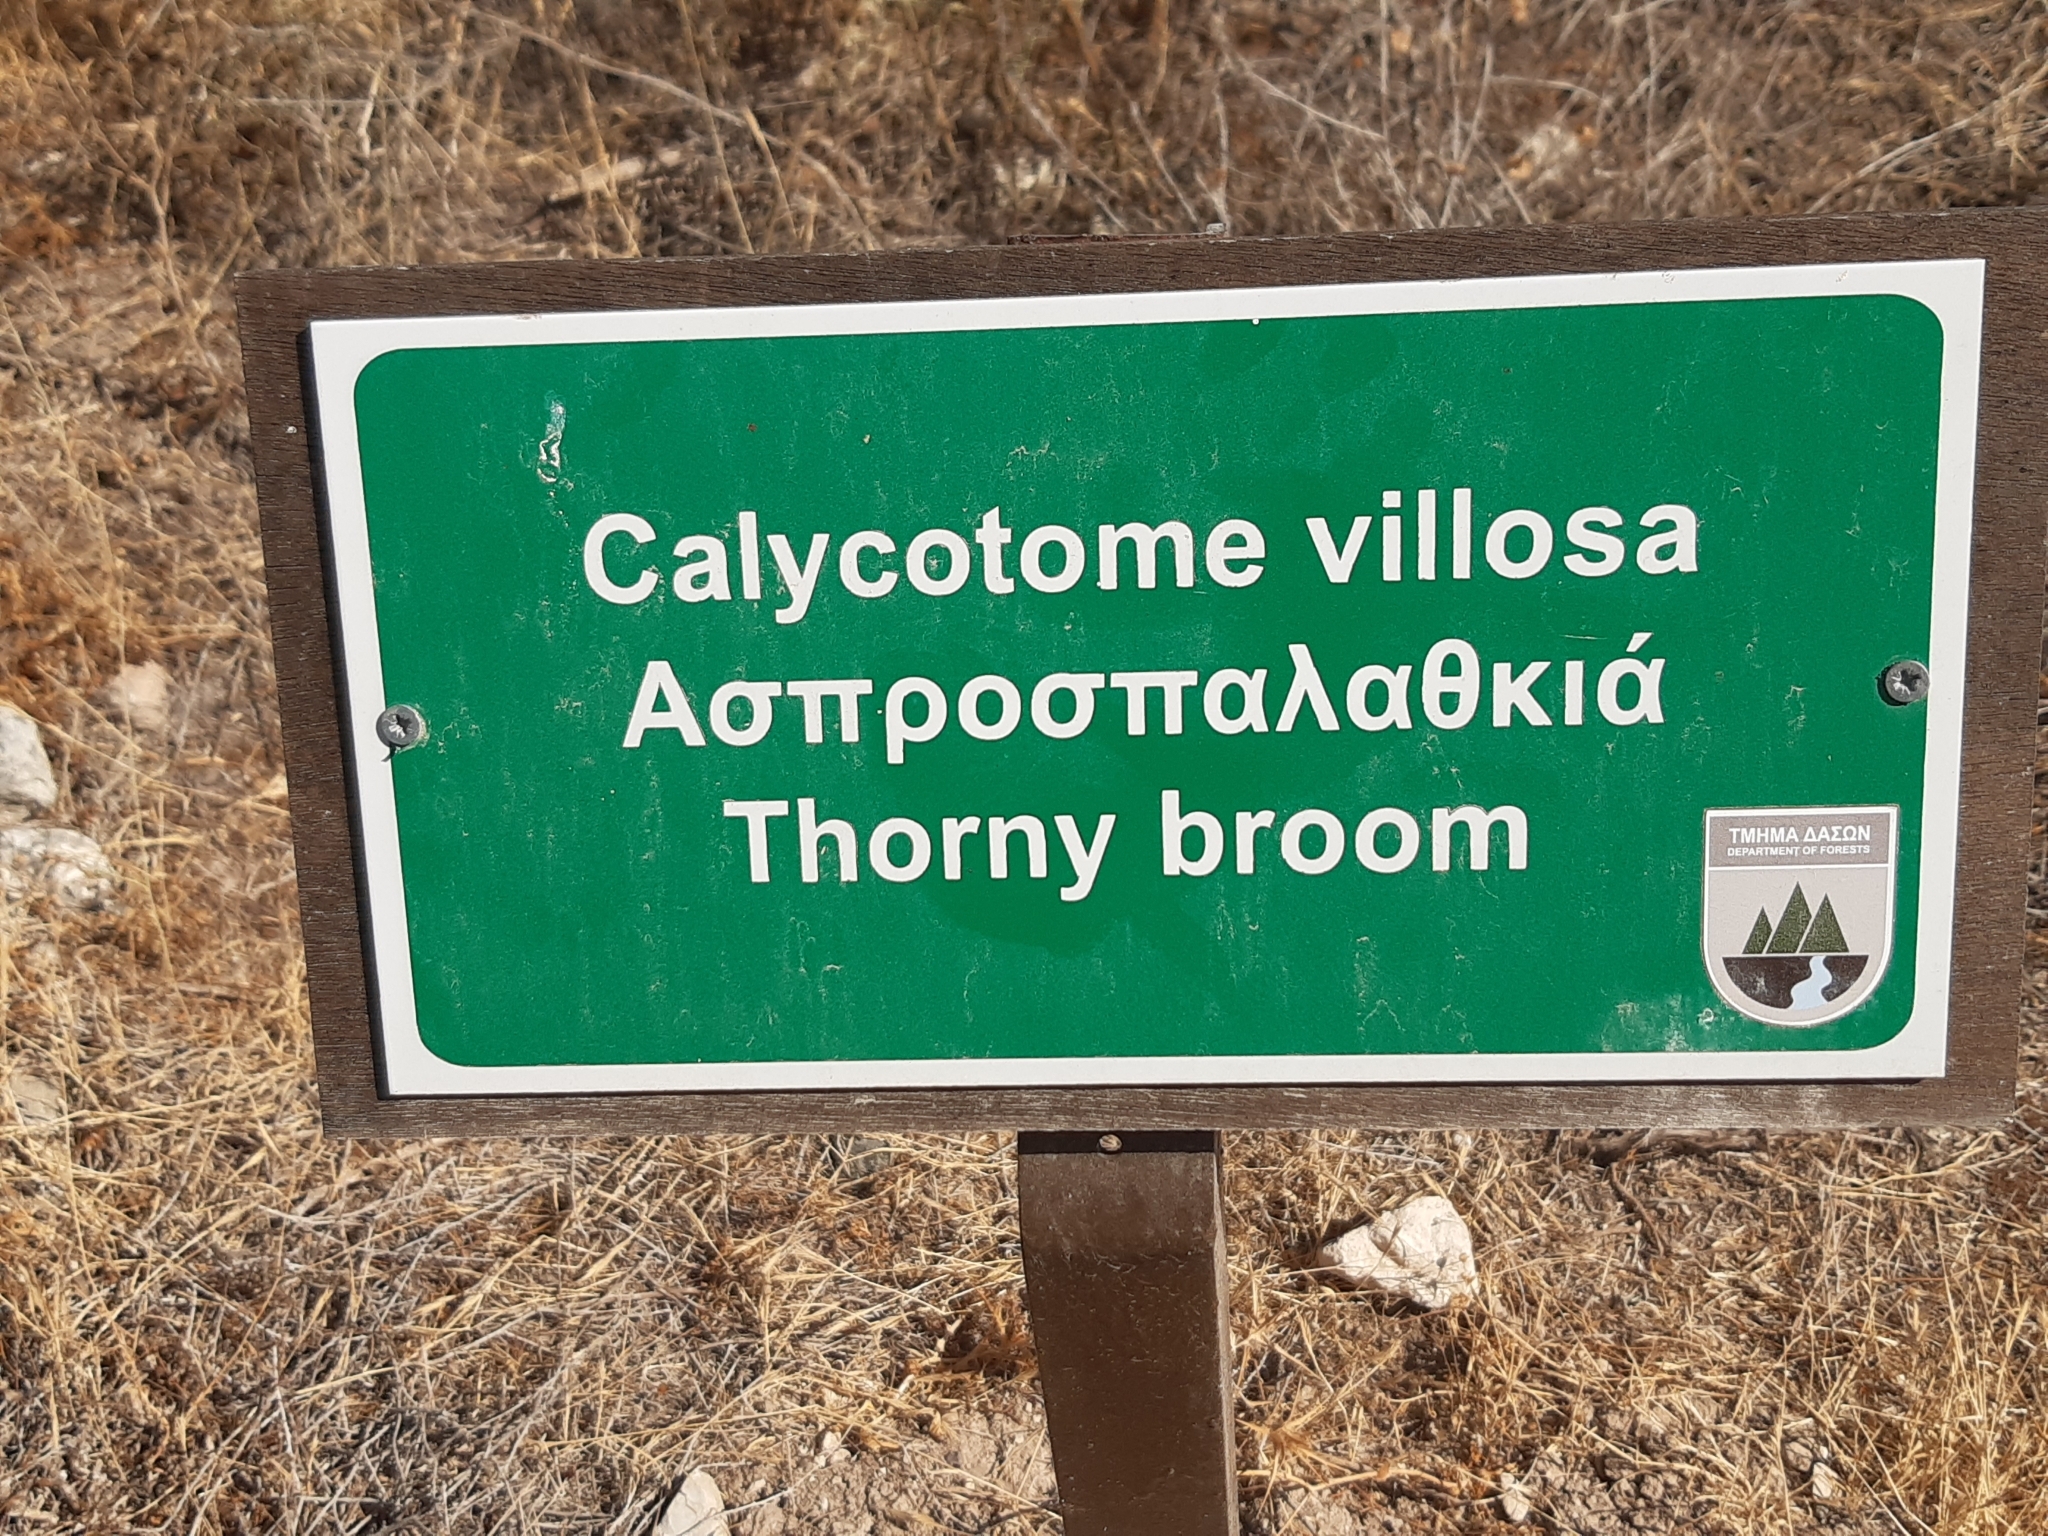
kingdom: Plantae
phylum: Tracheophyta
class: Magnoliopsida
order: Fabales
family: Fabaceae
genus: Calicotome
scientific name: Calicotome villosa
